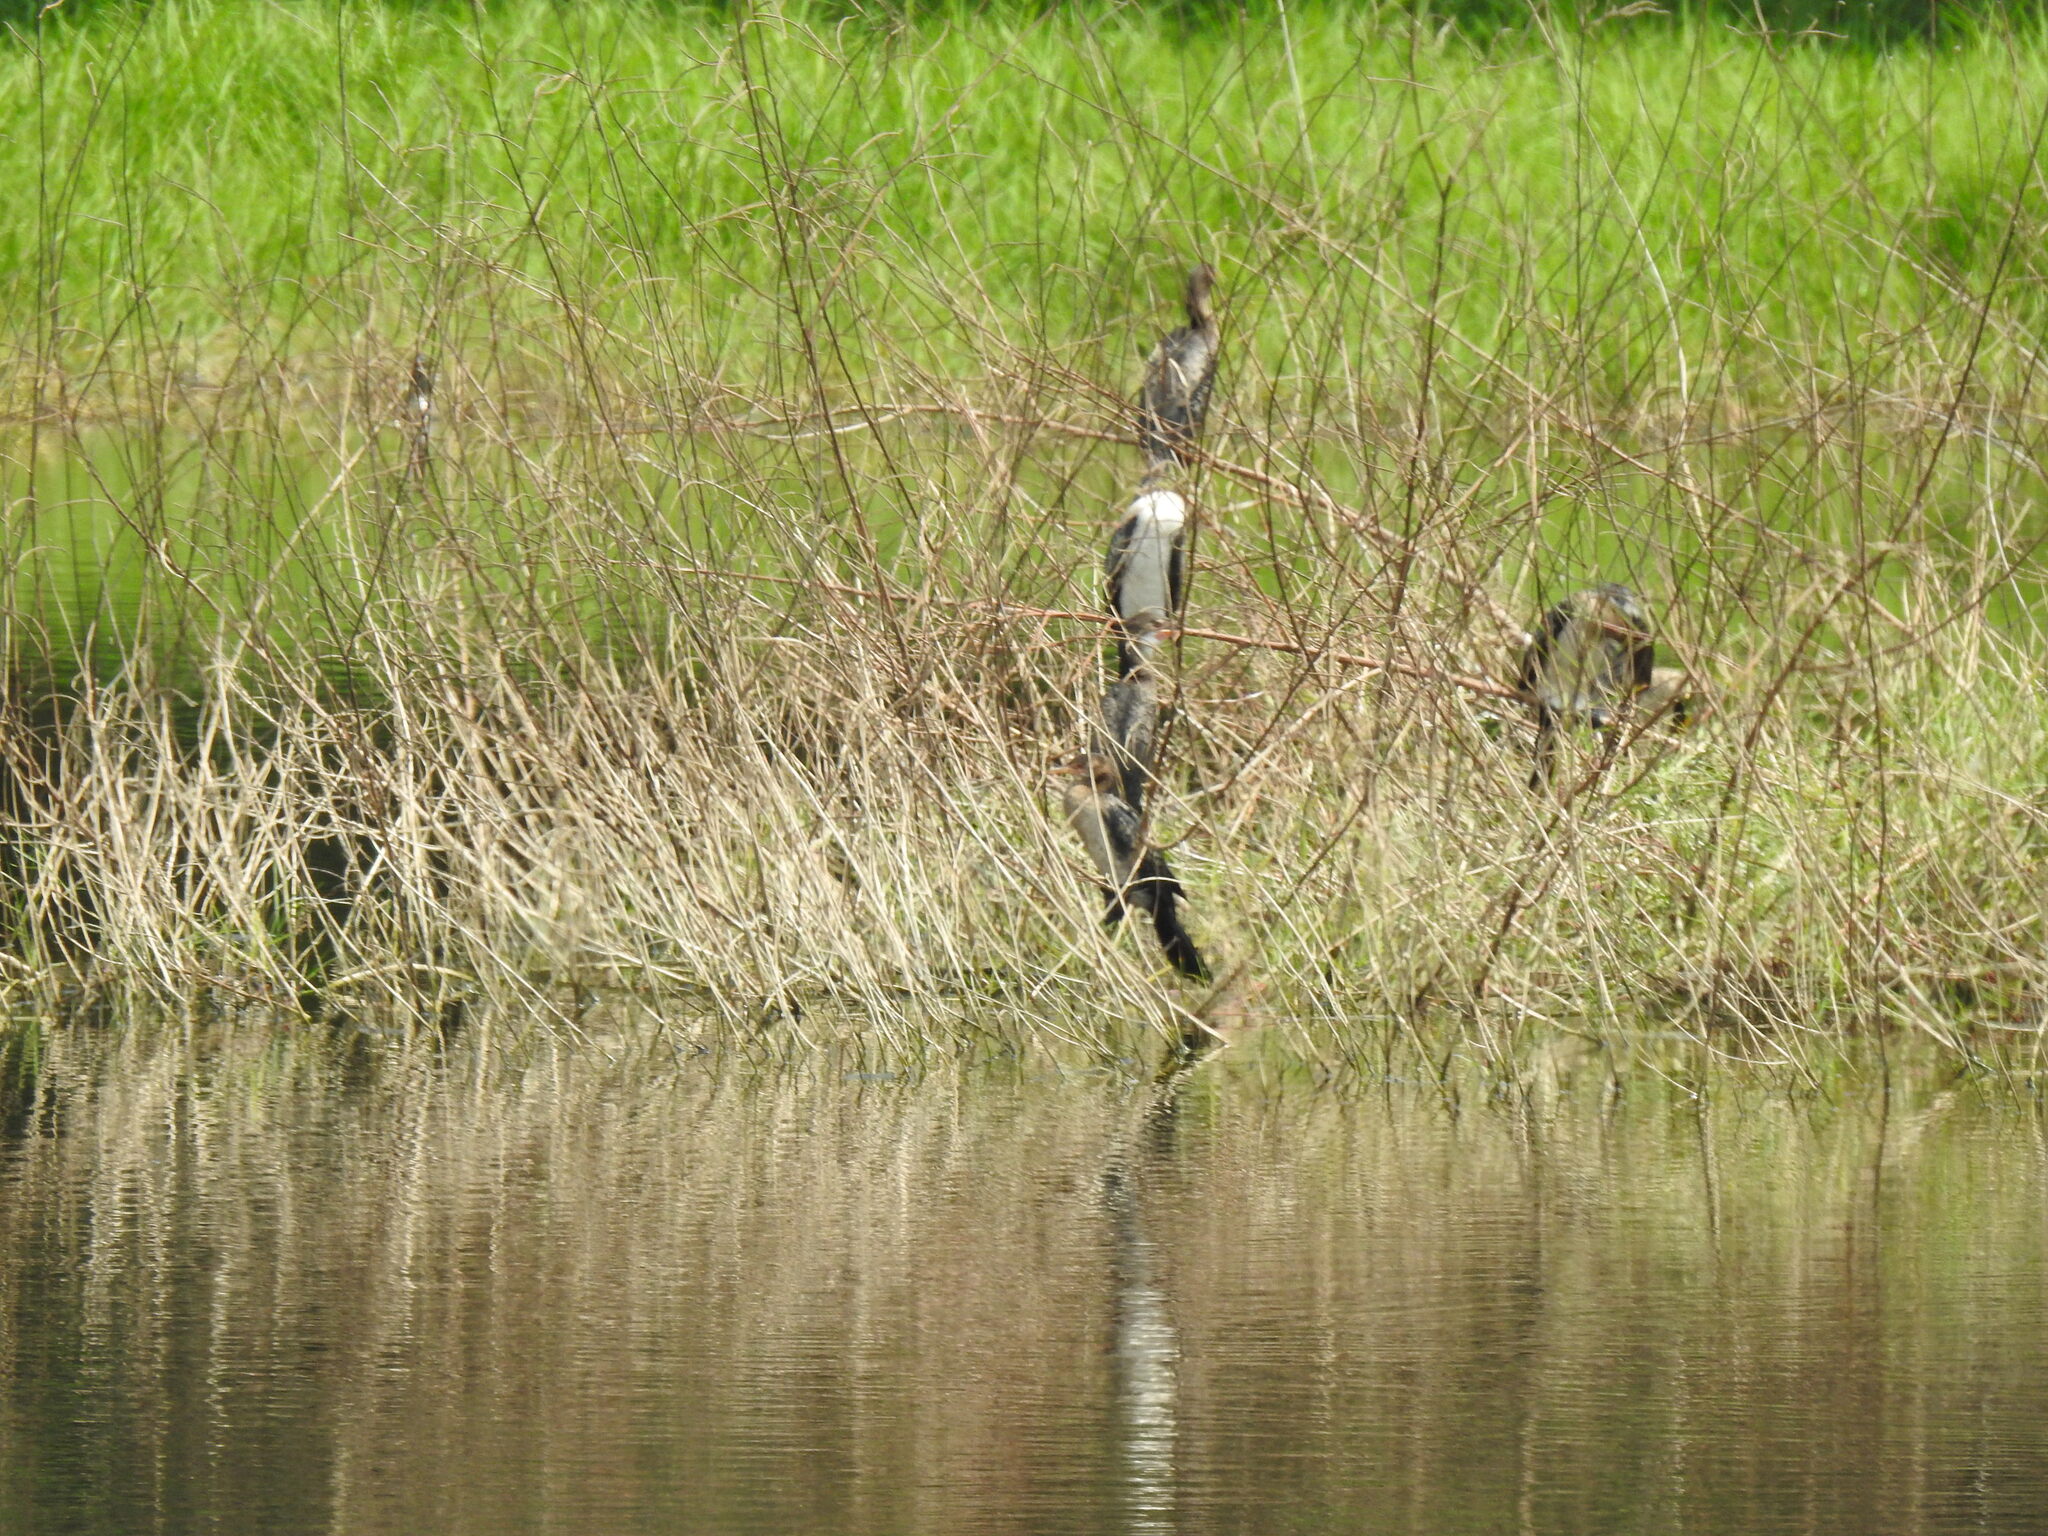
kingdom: Animalia
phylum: Chordata
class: Aves
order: Suliformes
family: Phalacrocoracidae
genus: Microcarbo
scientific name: Microcarbo africanus
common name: Long-tailed cormorant
